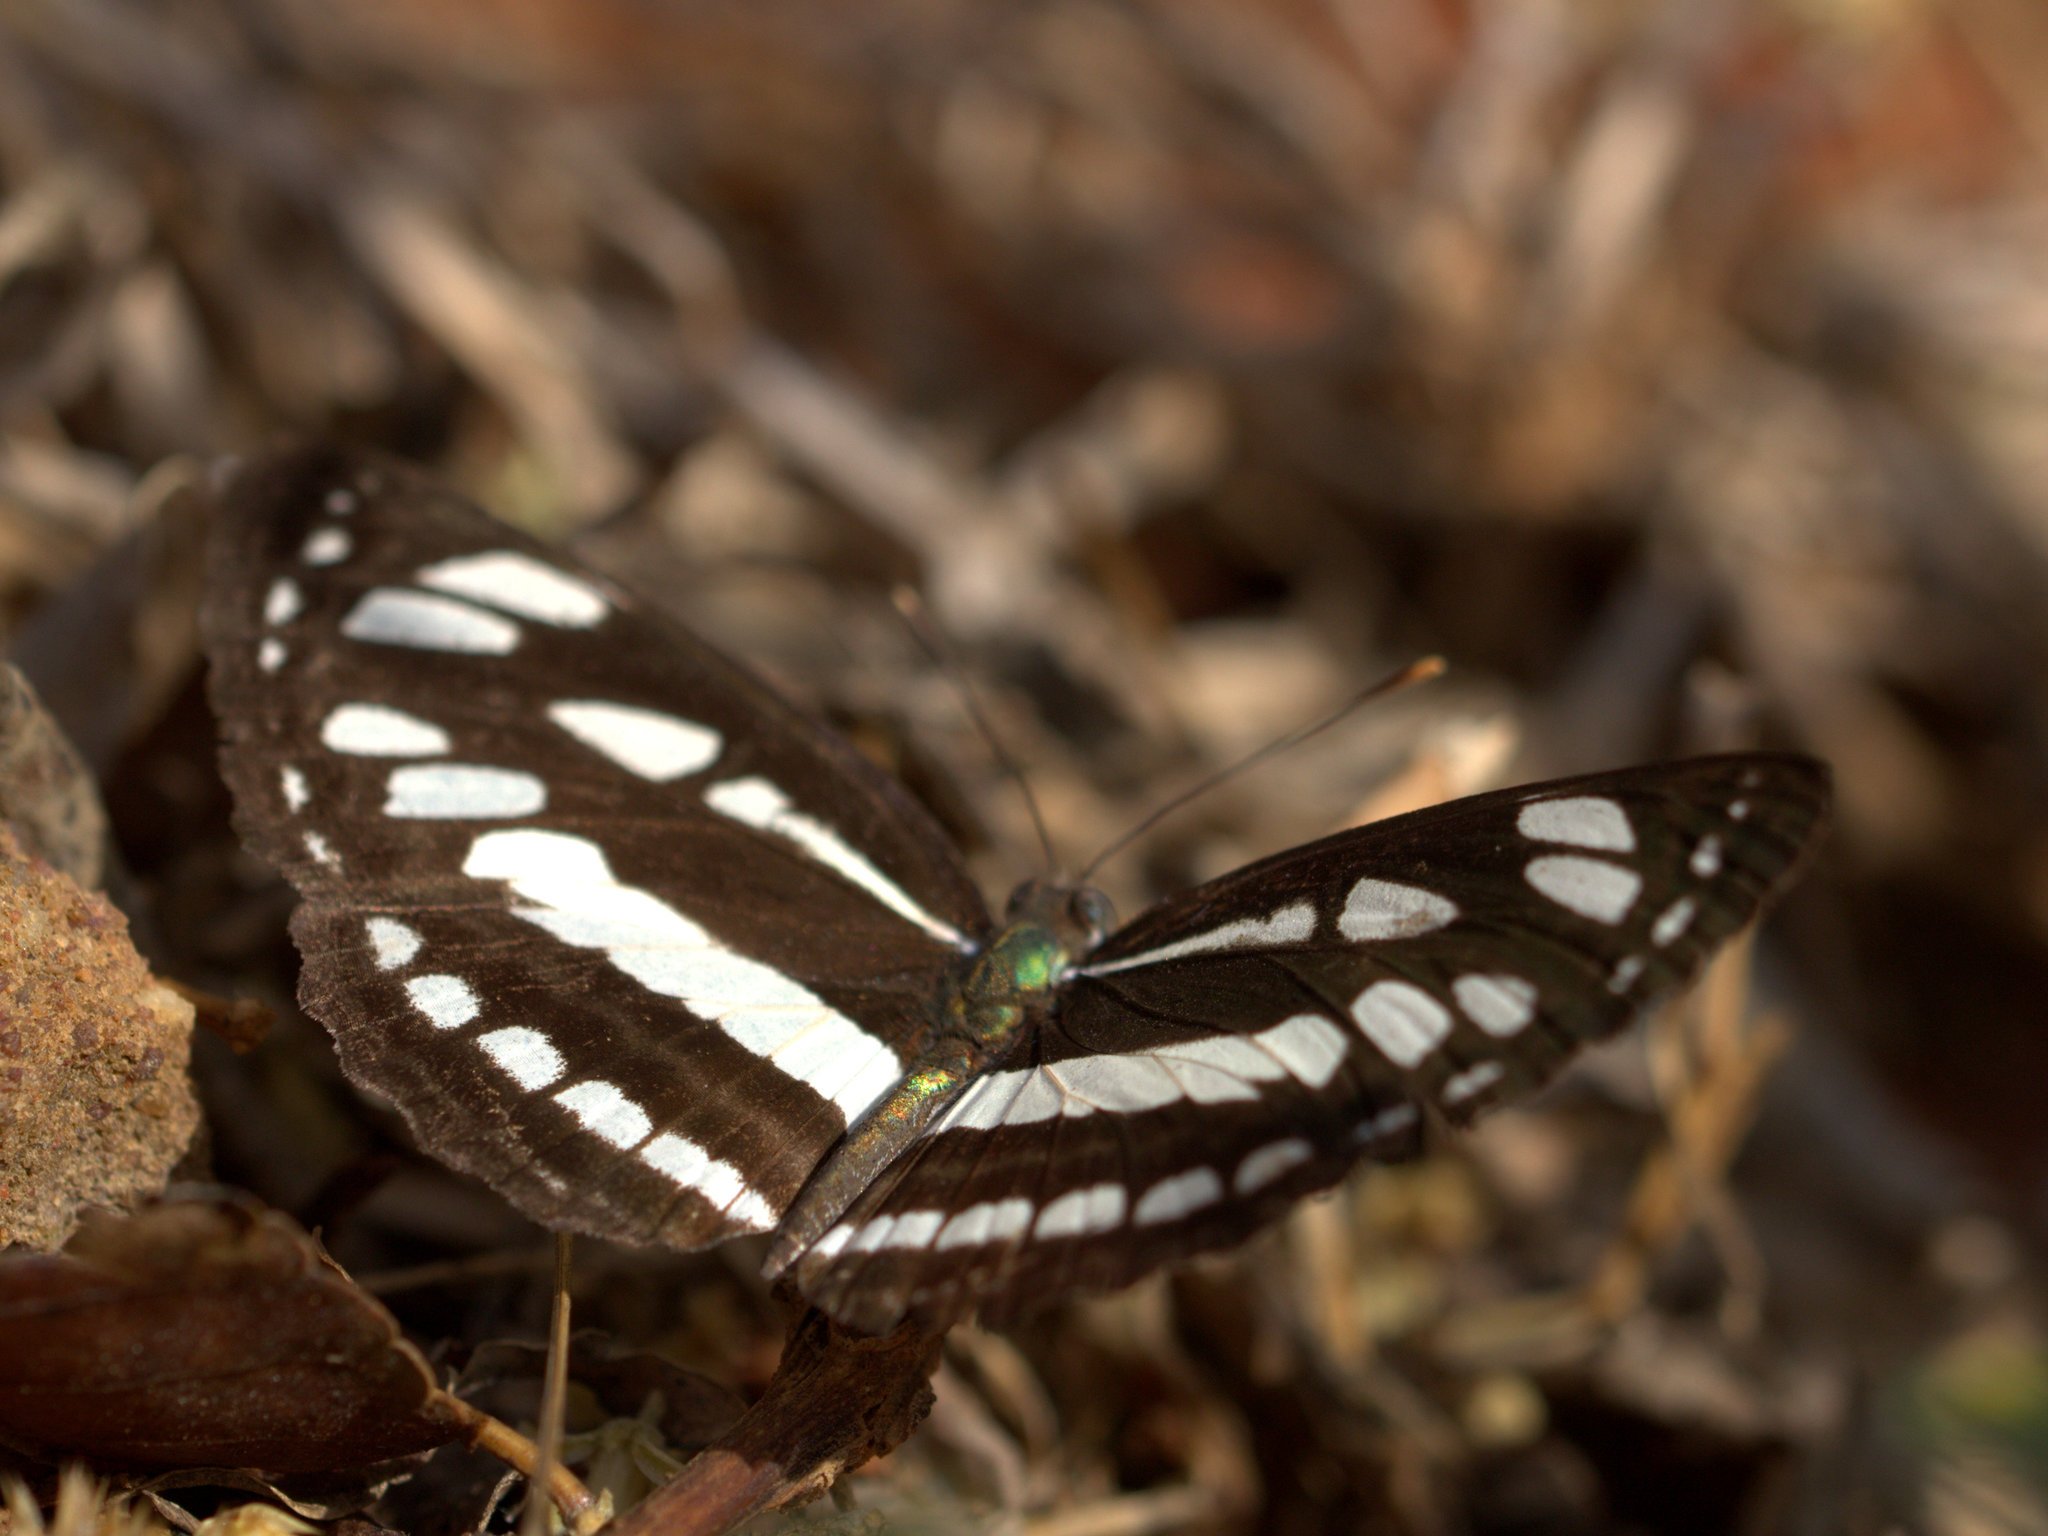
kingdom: Animalia
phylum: Arthropoda
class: Insecta
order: Lepidoptera
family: Nymphalidae
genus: Neptis
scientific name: Neptis hylas
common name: Common sailer
